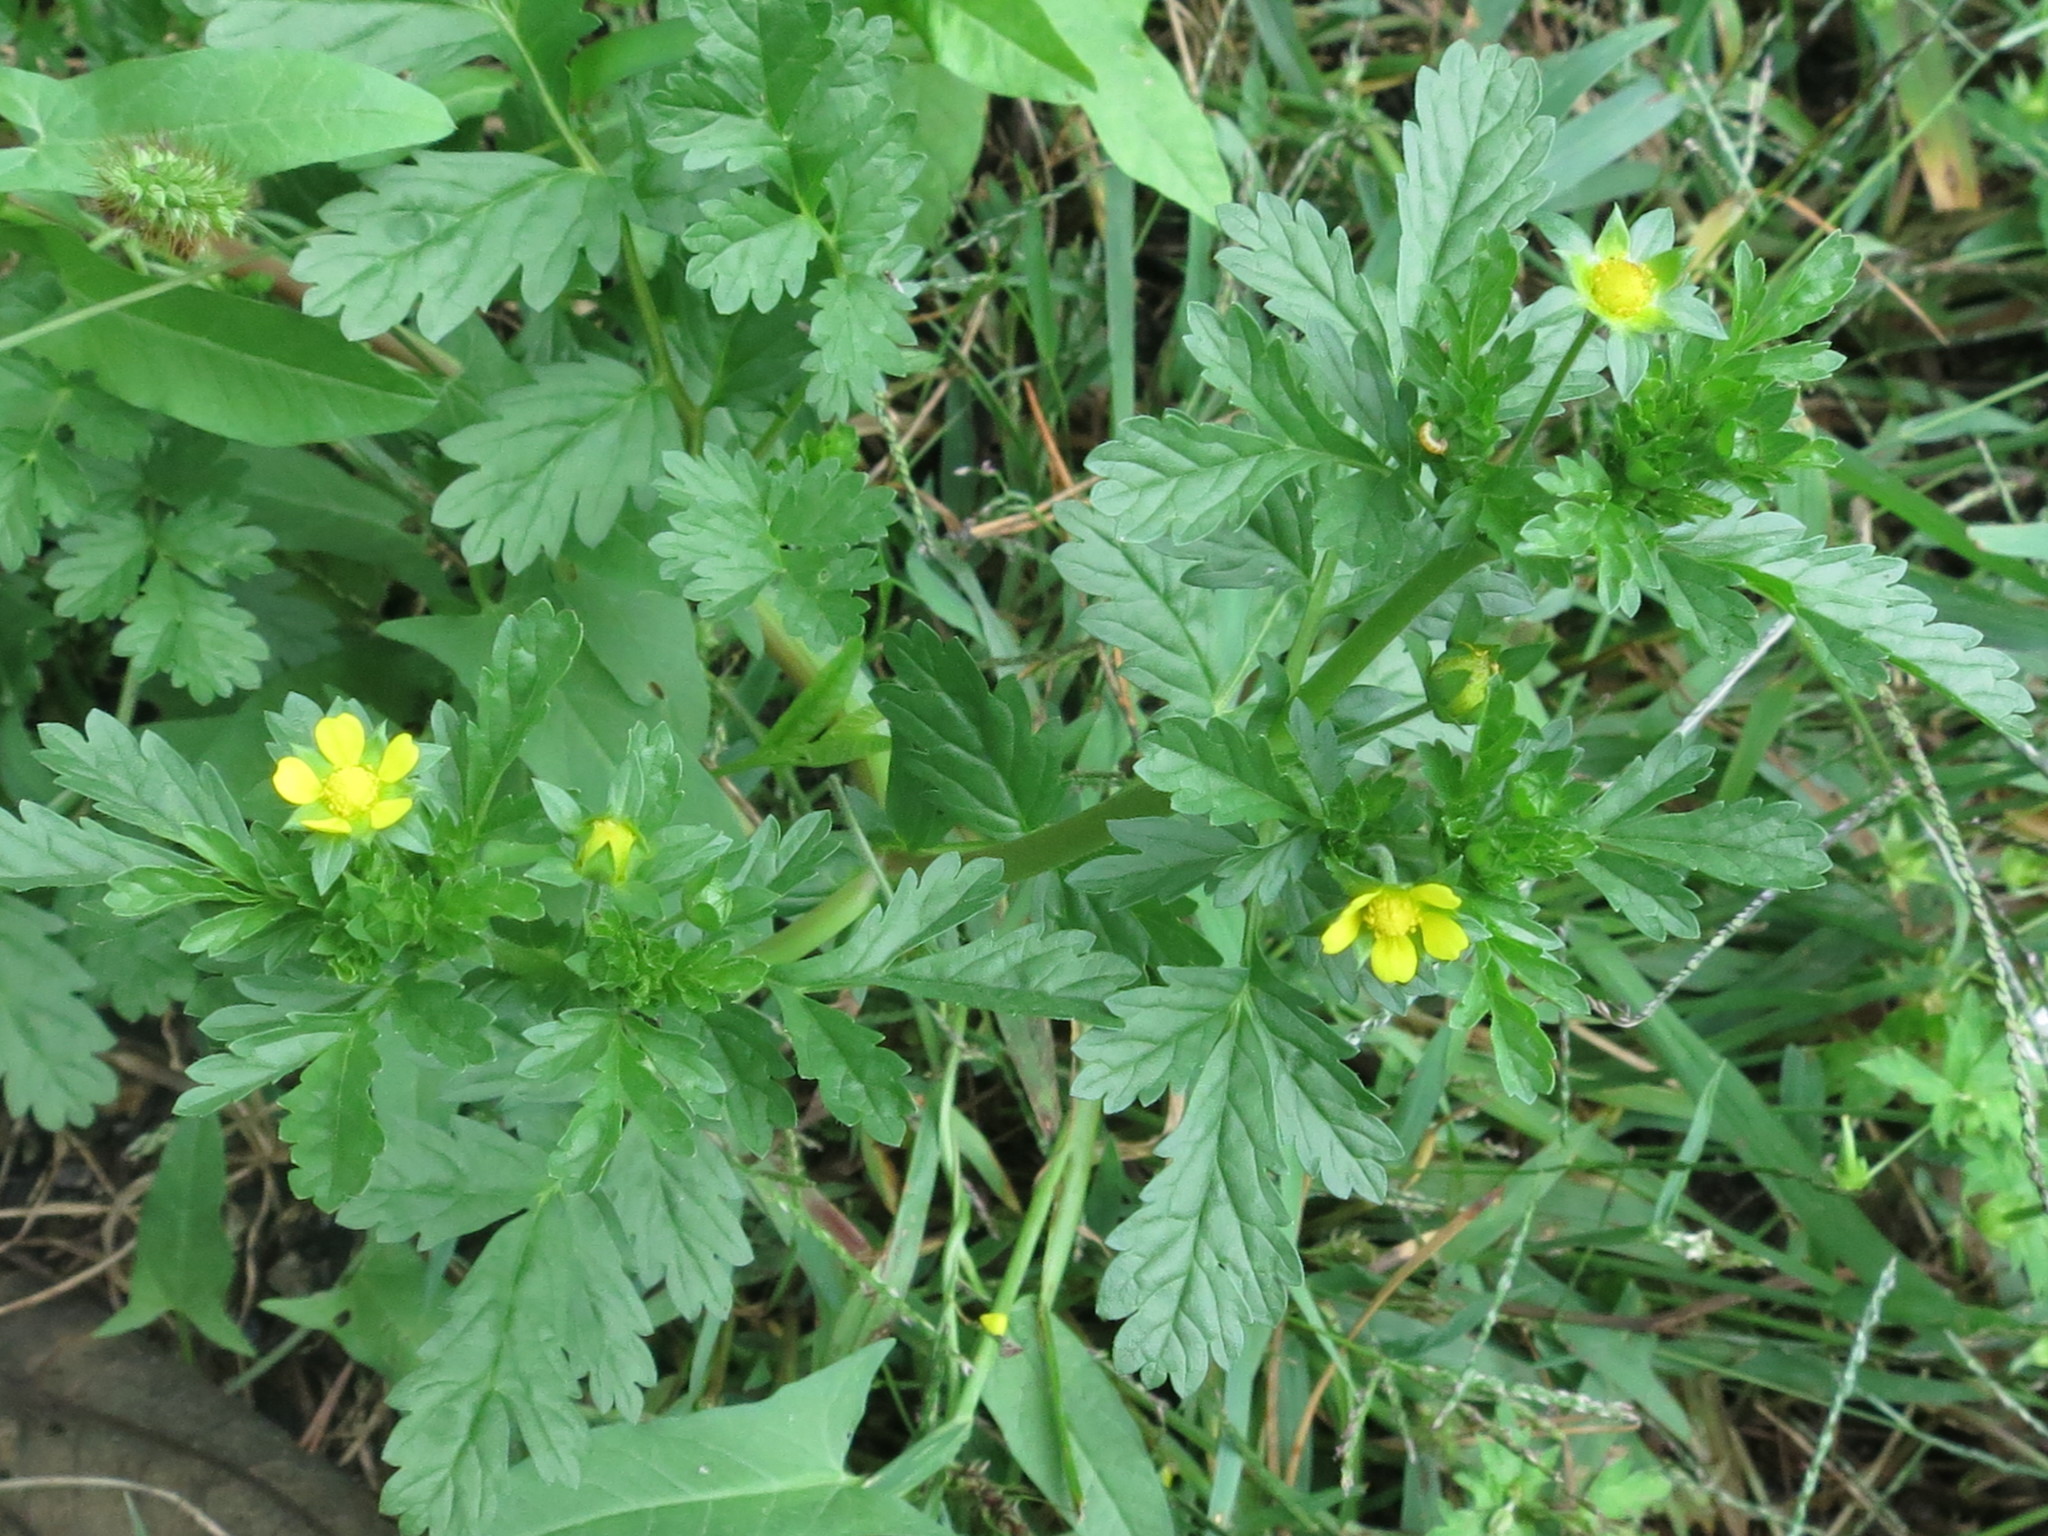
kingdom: Plantae
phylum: Tracheophyta
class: Magnoliopsida
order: Rosales
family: Rosaceae
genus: Potentilla
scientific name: Potentilla supina
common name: Prostrate cinquefoil
